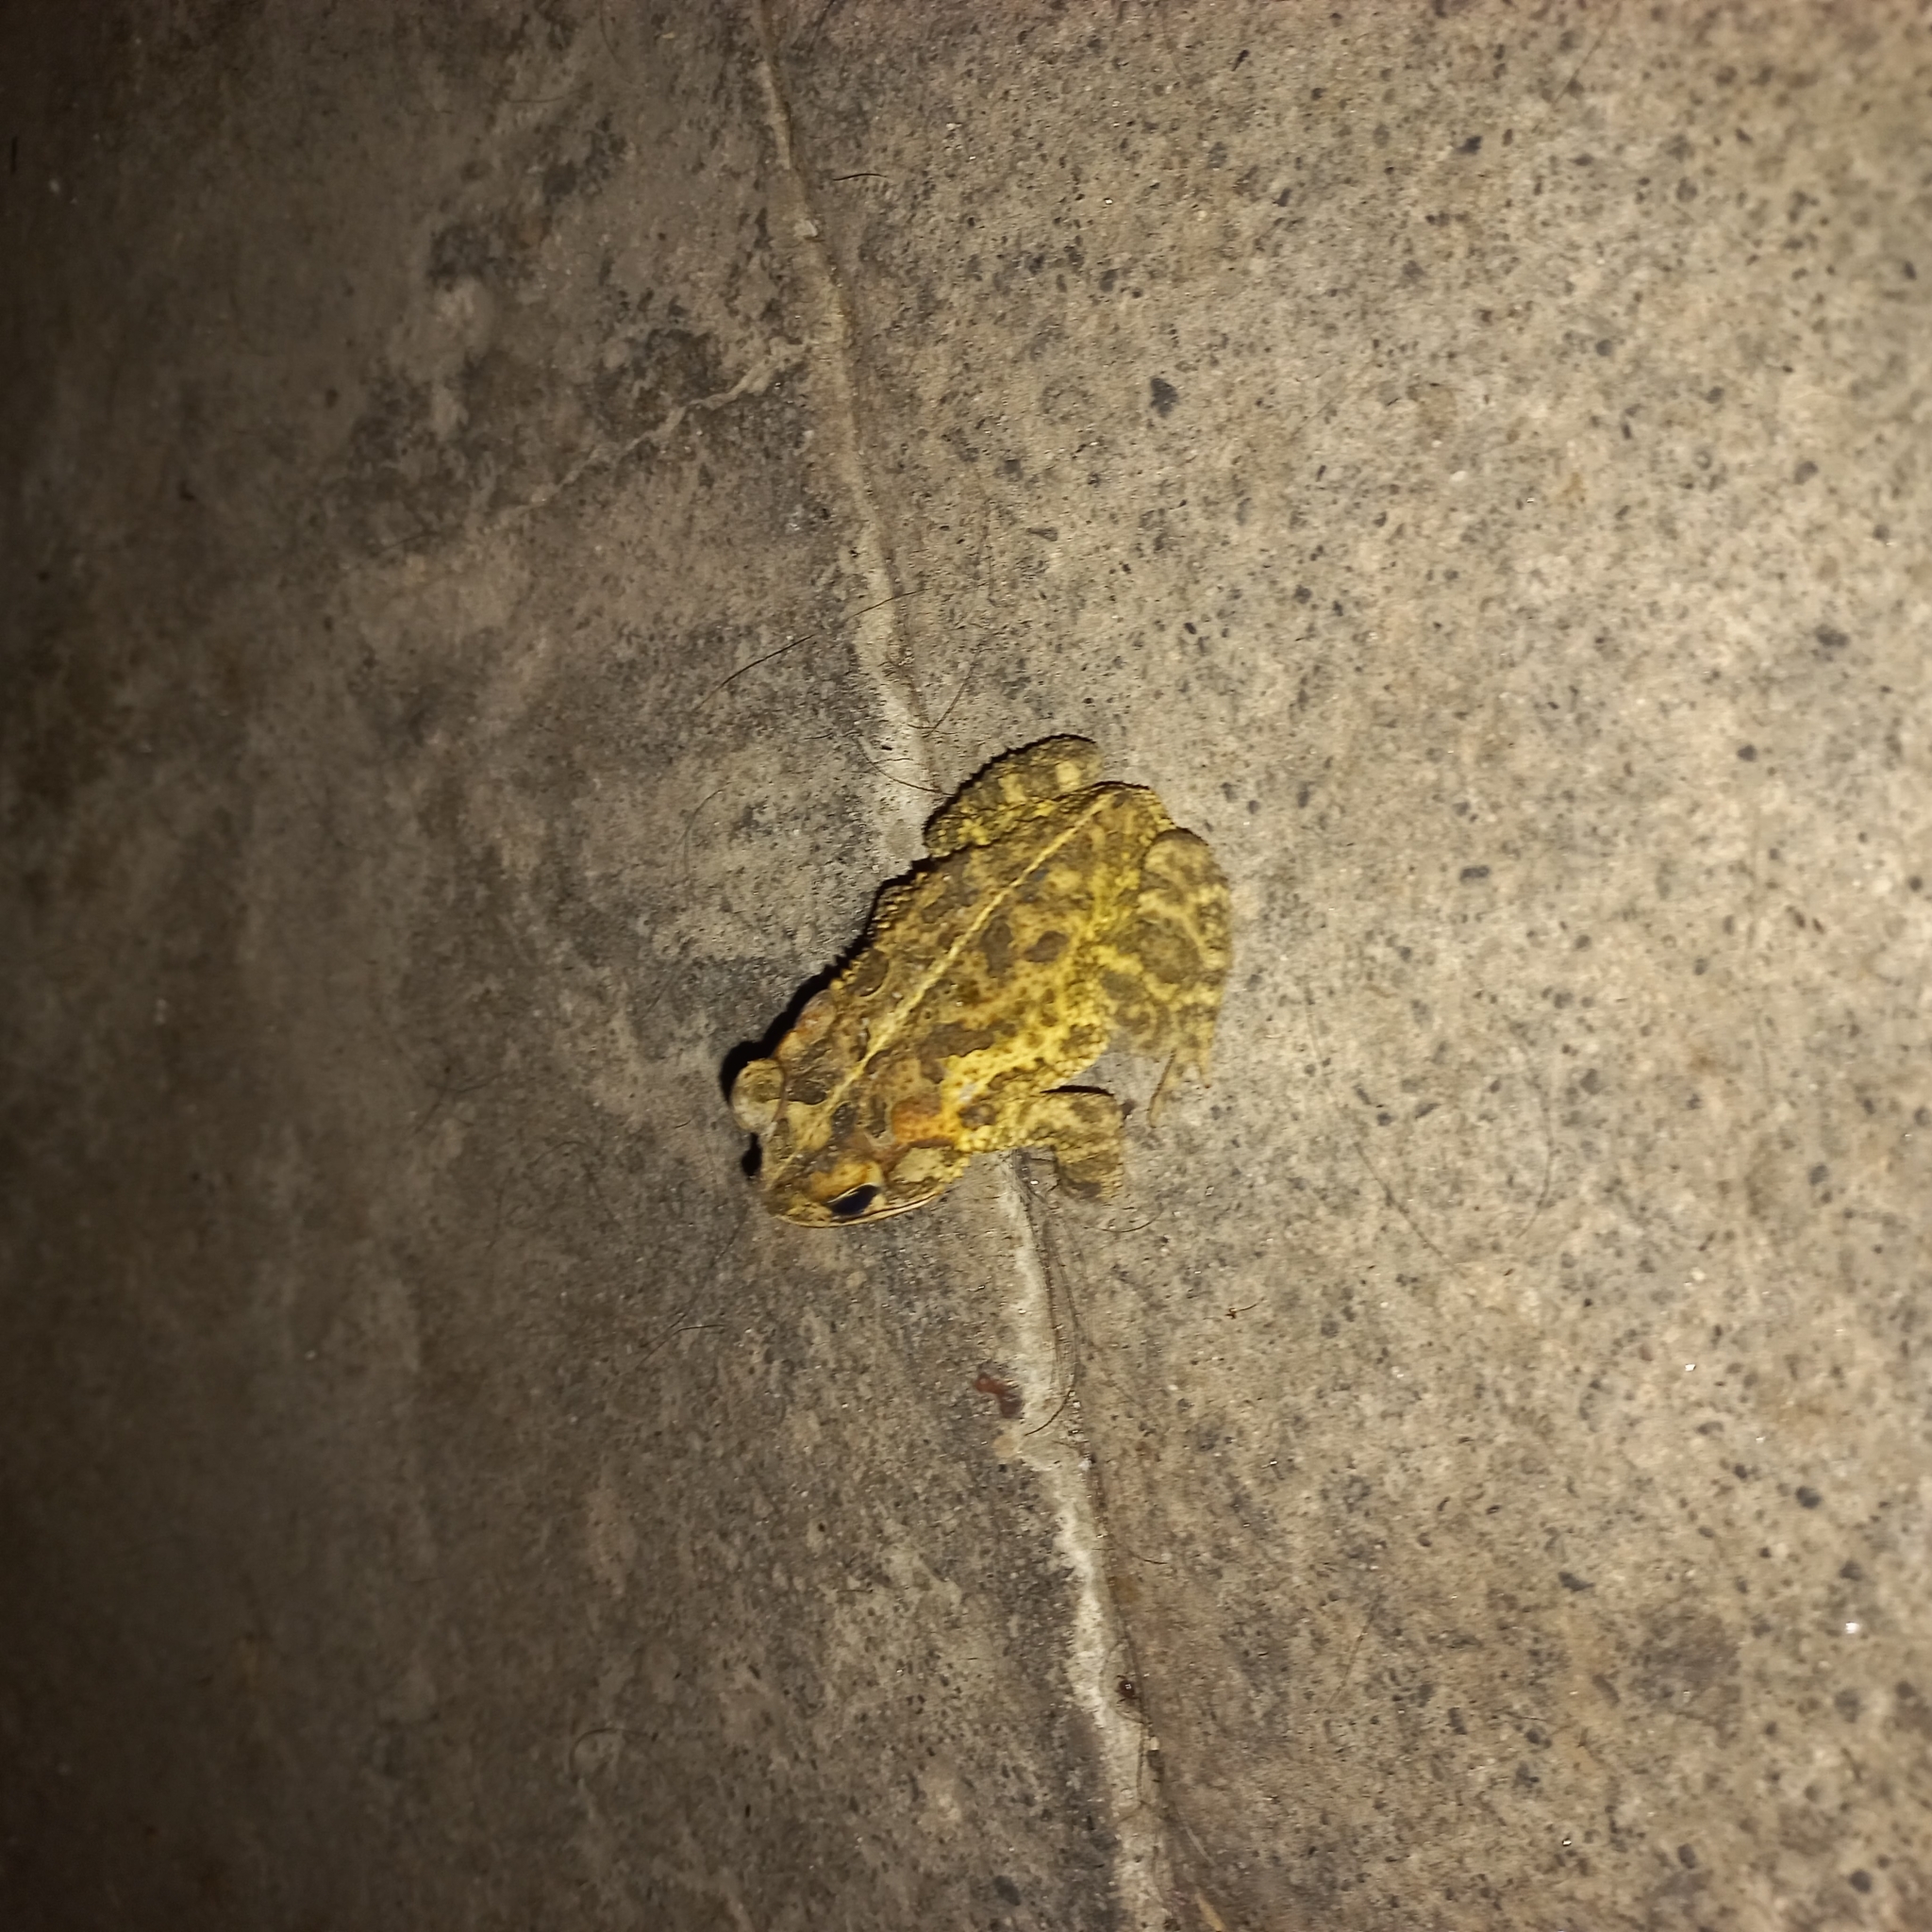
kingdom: Animalia
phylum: Chordata
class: Amphibia
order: Anura
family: Bufonidae
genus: Incilius
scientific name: Incilius coccifer
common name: Southern round-gland toad
